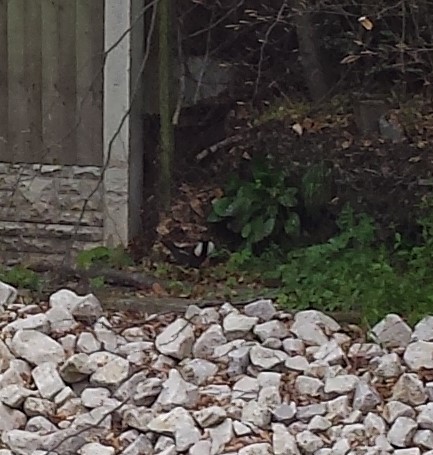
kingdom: Animalia
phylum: Chordata
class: Aves
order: Gruiformes
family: Rallidae
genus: Gallinula
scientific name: Gallinula chloropus
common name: Common moorhen
